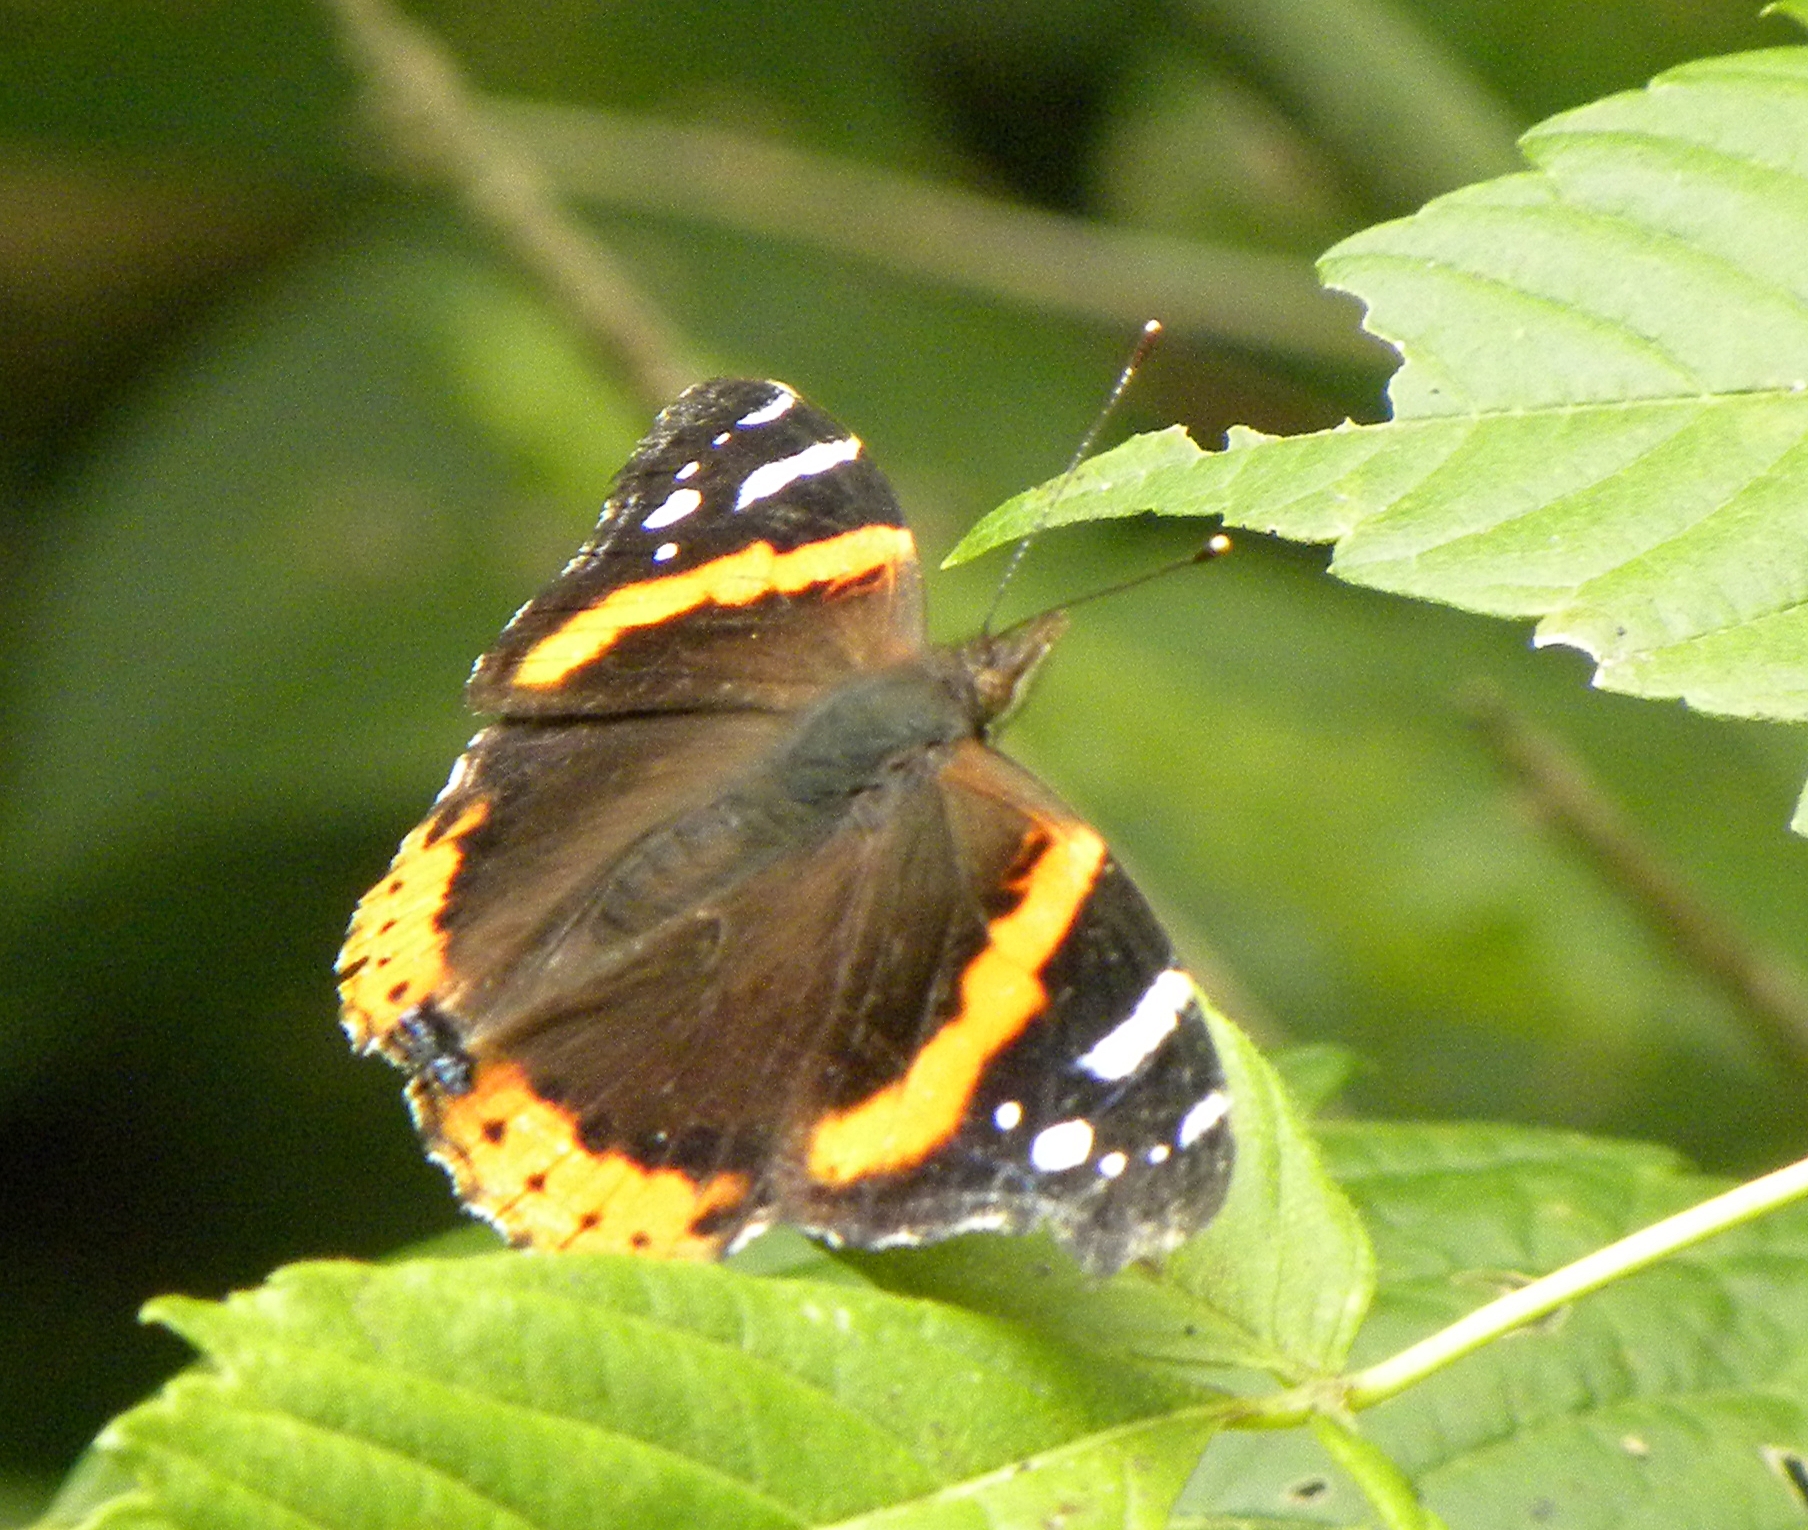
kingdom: Animalia
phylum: Arthropoda
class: Insecta
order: Lepidoptera
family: Nymphalidae
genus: Vanessa
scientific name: Vanessa atalanta
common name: Red admiral
